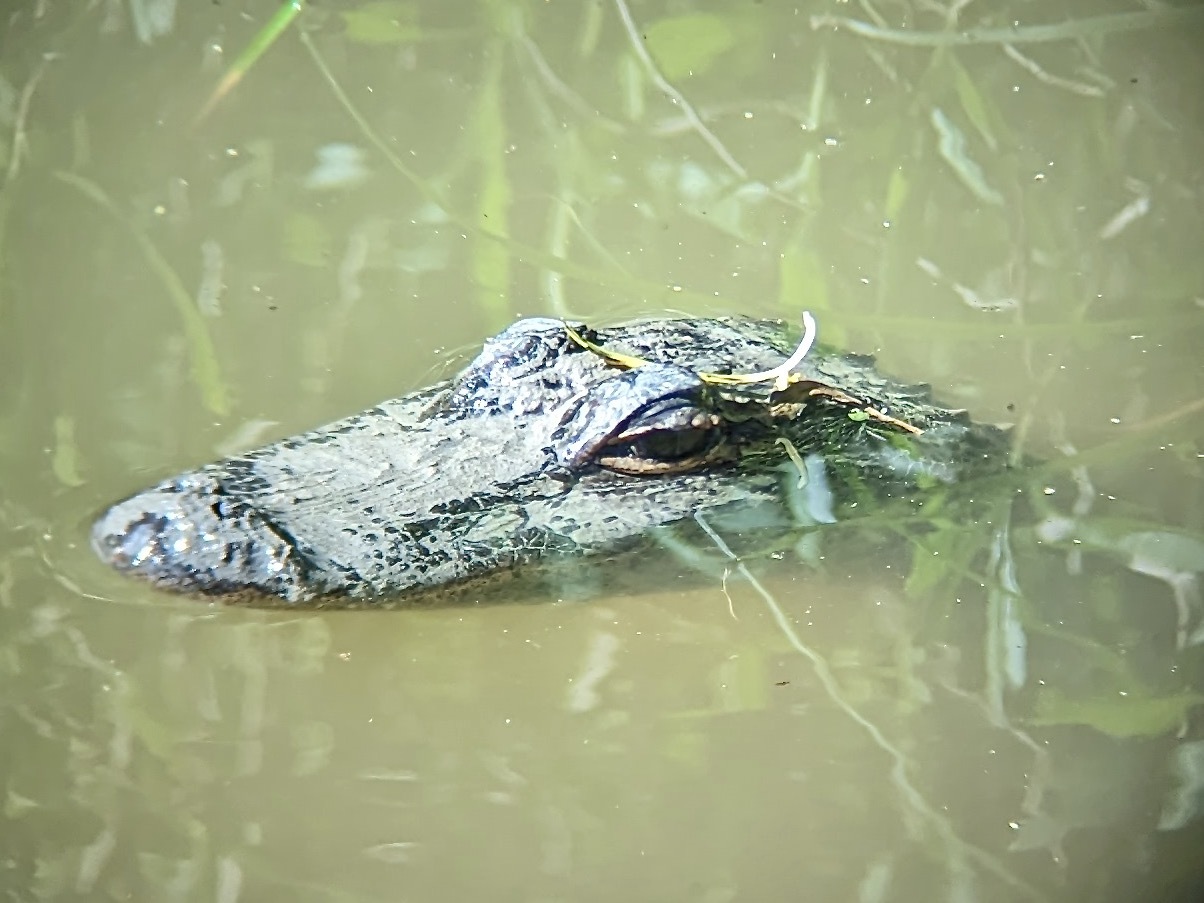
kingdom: Animalia
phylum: Chordata
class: Crocodylia
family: Alligatoridae
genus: Alligator
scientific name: Alligator mississippiensis
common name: American alligator
